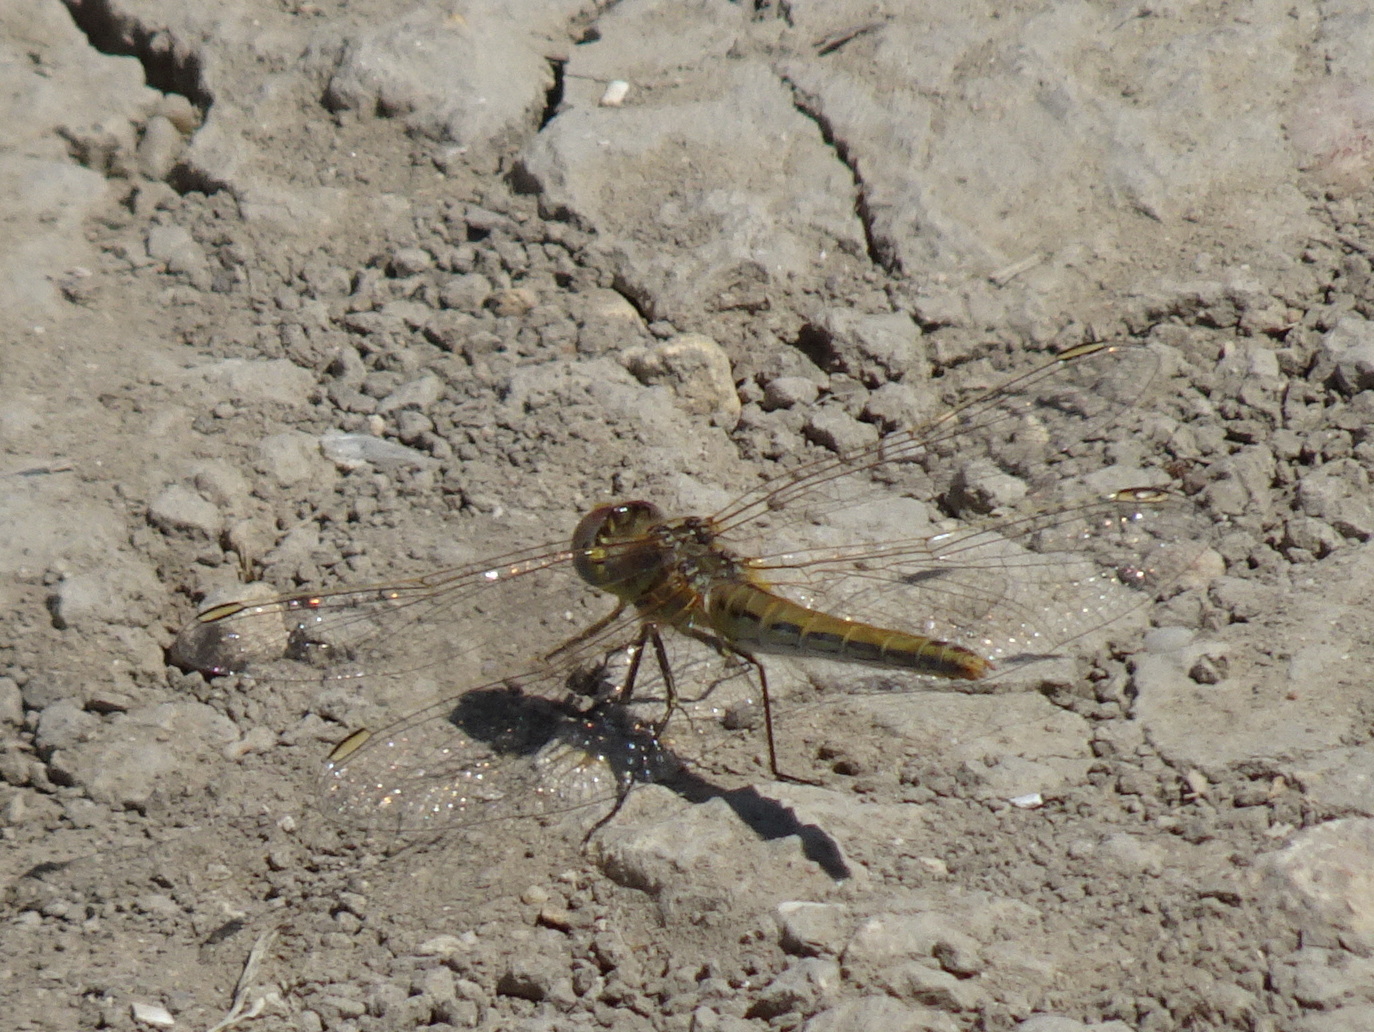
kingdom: Animalia
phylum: Arthropoda
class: Insecta
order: Odonata
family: Libellulidae
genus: Sympetrum
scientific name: Sympetrum fonscolombii
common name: Red-veined darter
